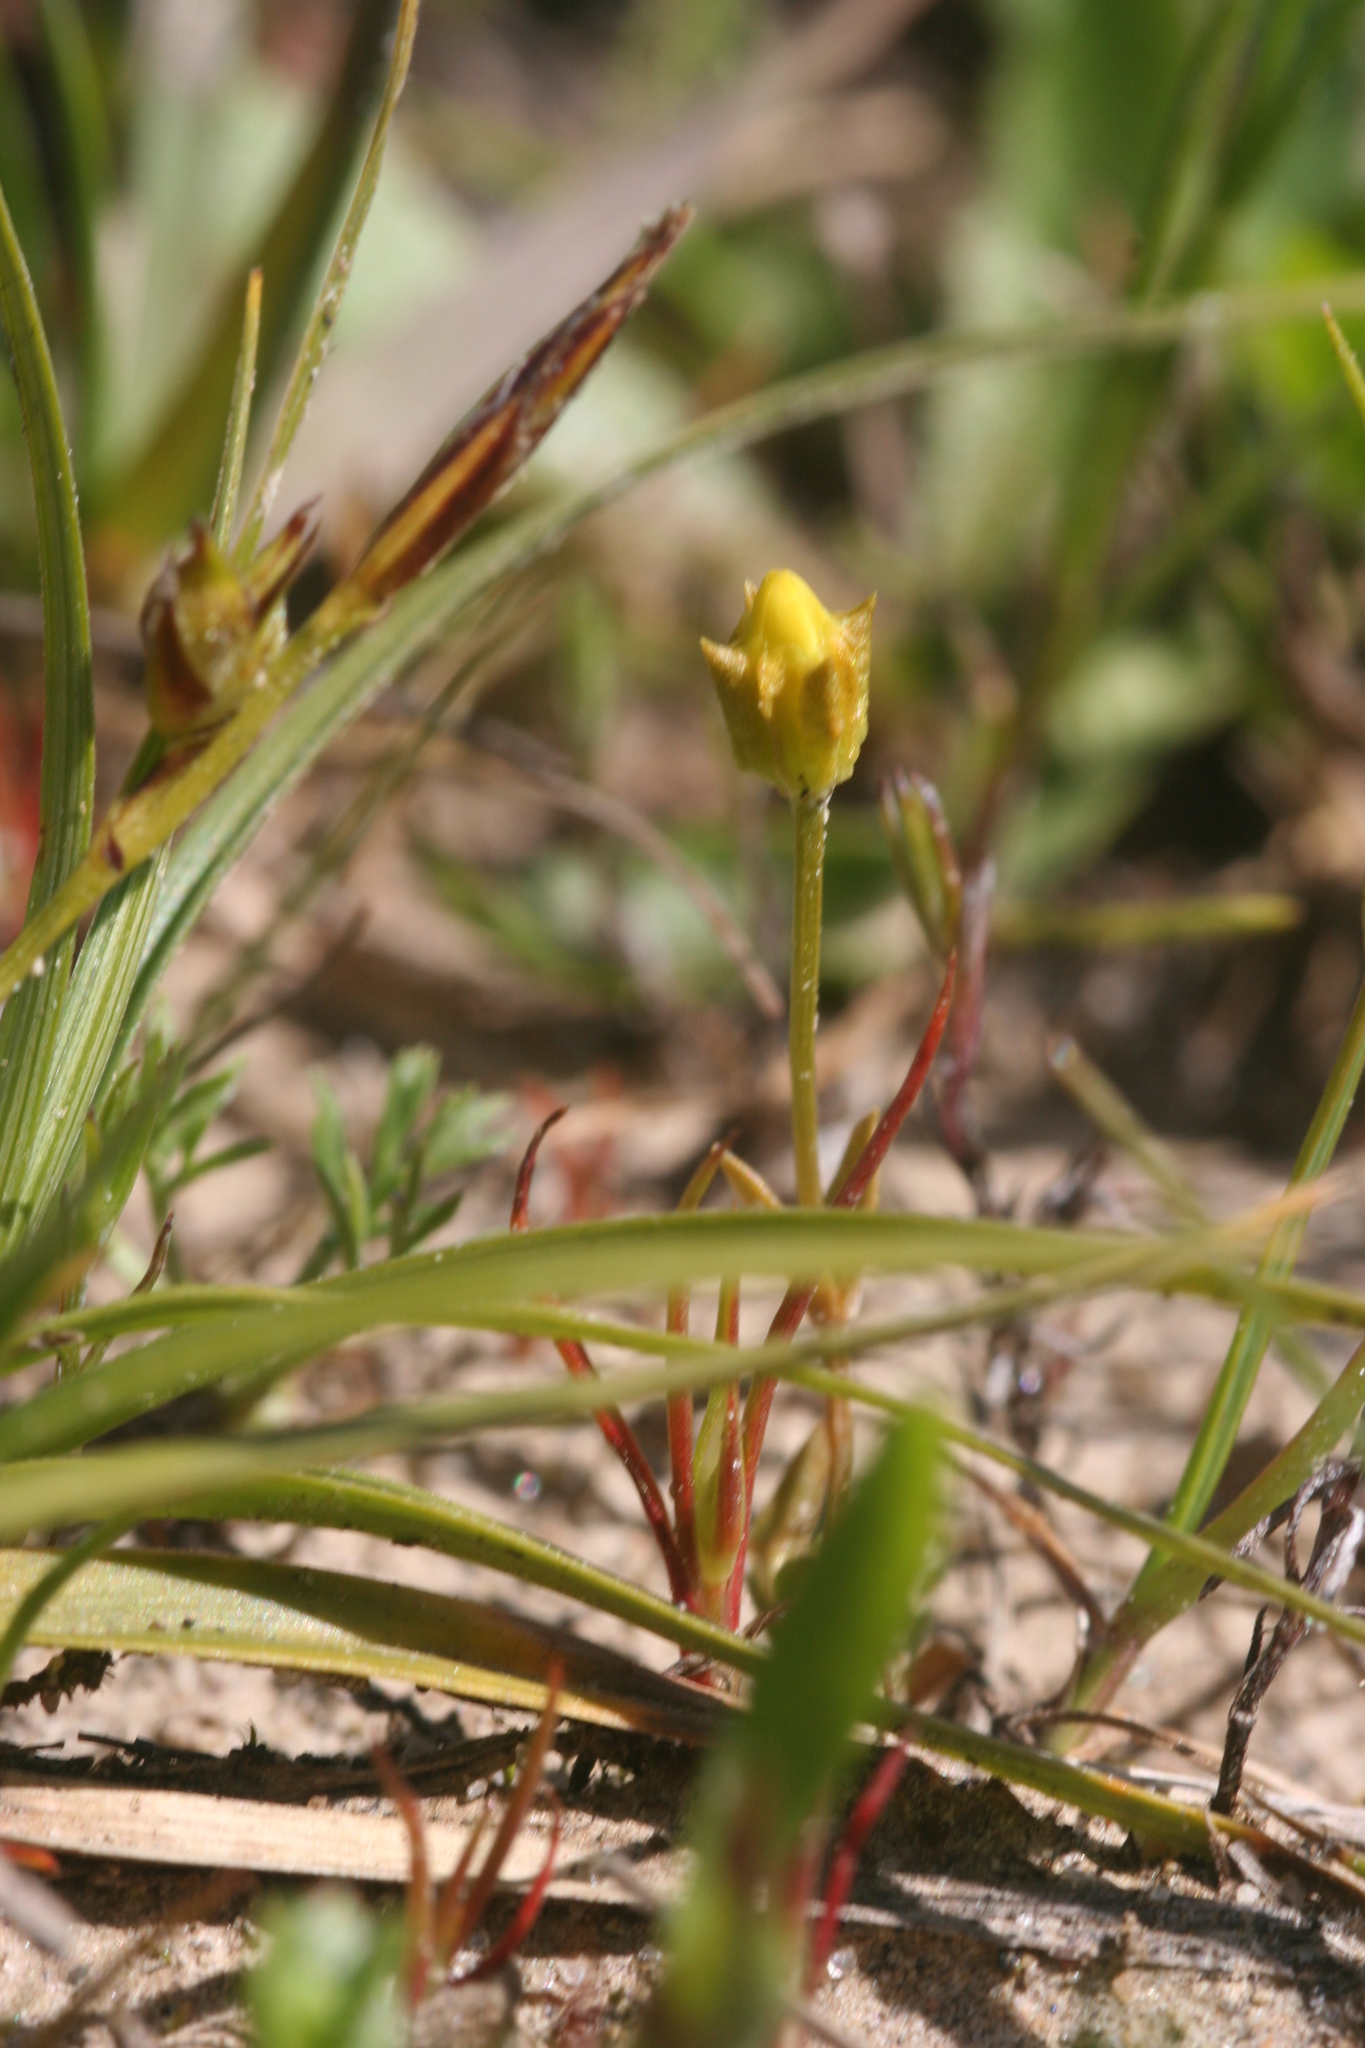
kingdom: Plantae
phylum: Tracheophyta
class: Magnoliopsida
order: Gentianales
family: Gentianaceae
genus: Microcala
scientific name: Microcala quadrangularis
